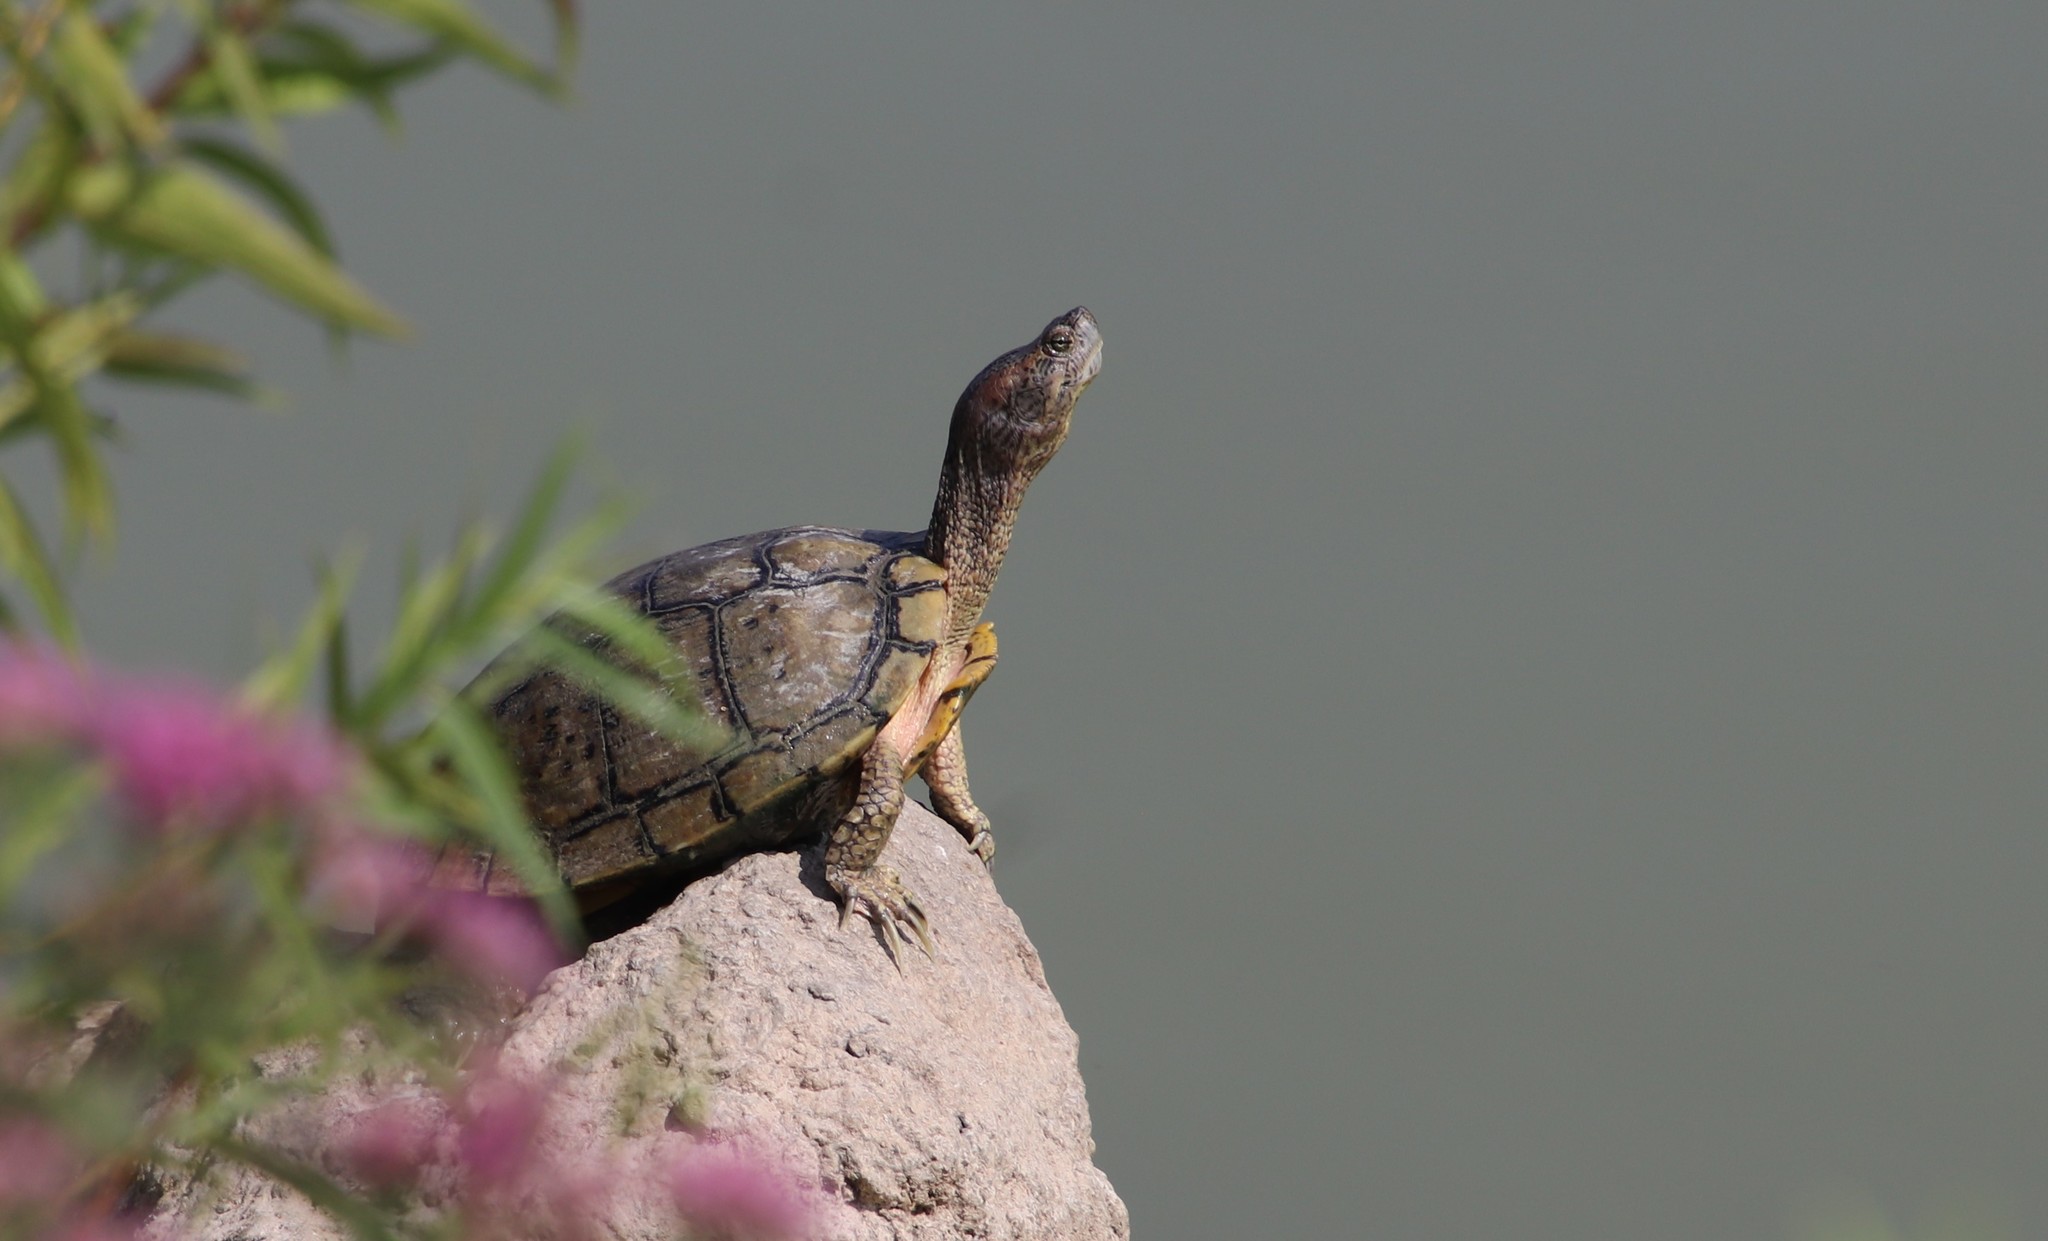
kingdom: Animalia
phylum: Chordata
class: Testudines
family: Emydidae
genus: Trachemys
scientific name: Trachemys scripta
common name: Slider
